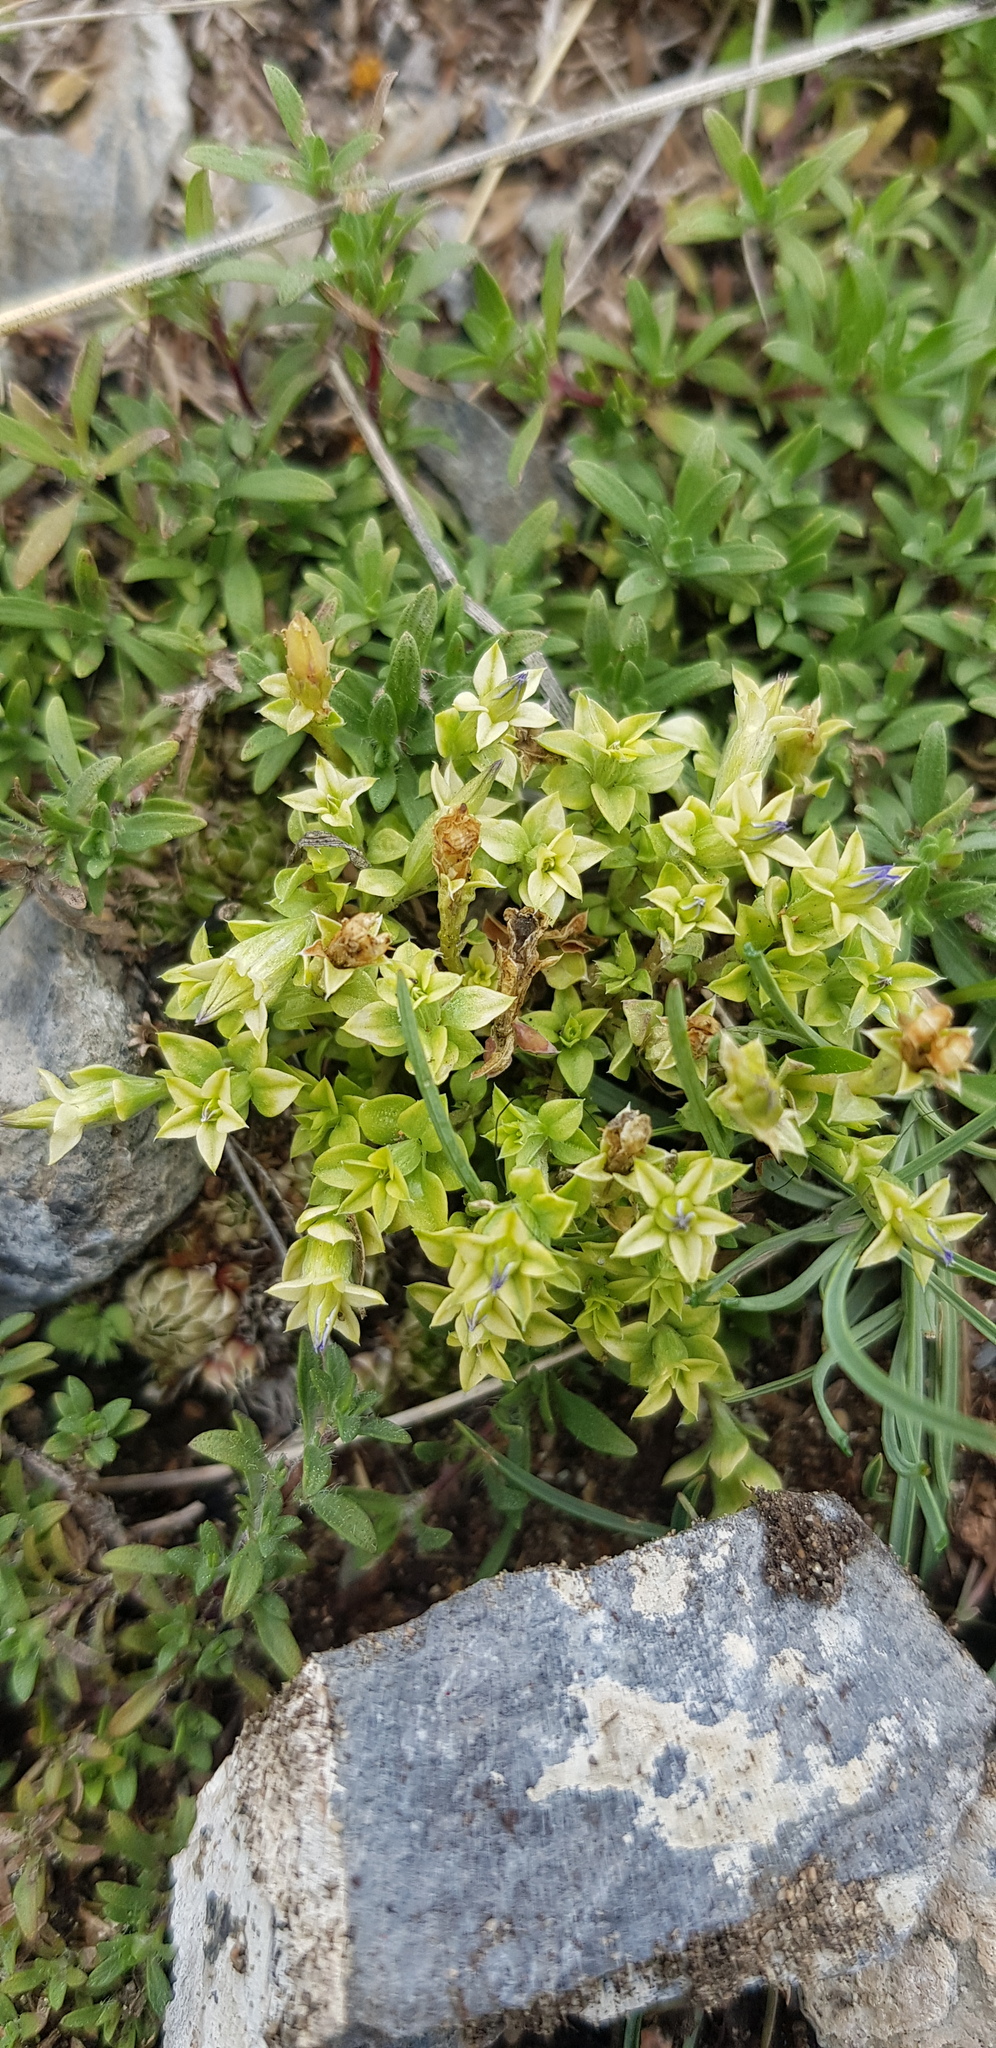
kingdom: Plantae
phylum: Tracheophyta
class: Magnoliopsida
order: Gentianales
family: Gentianaceae
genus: Gentiana
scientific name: Gentiana squarrosa
